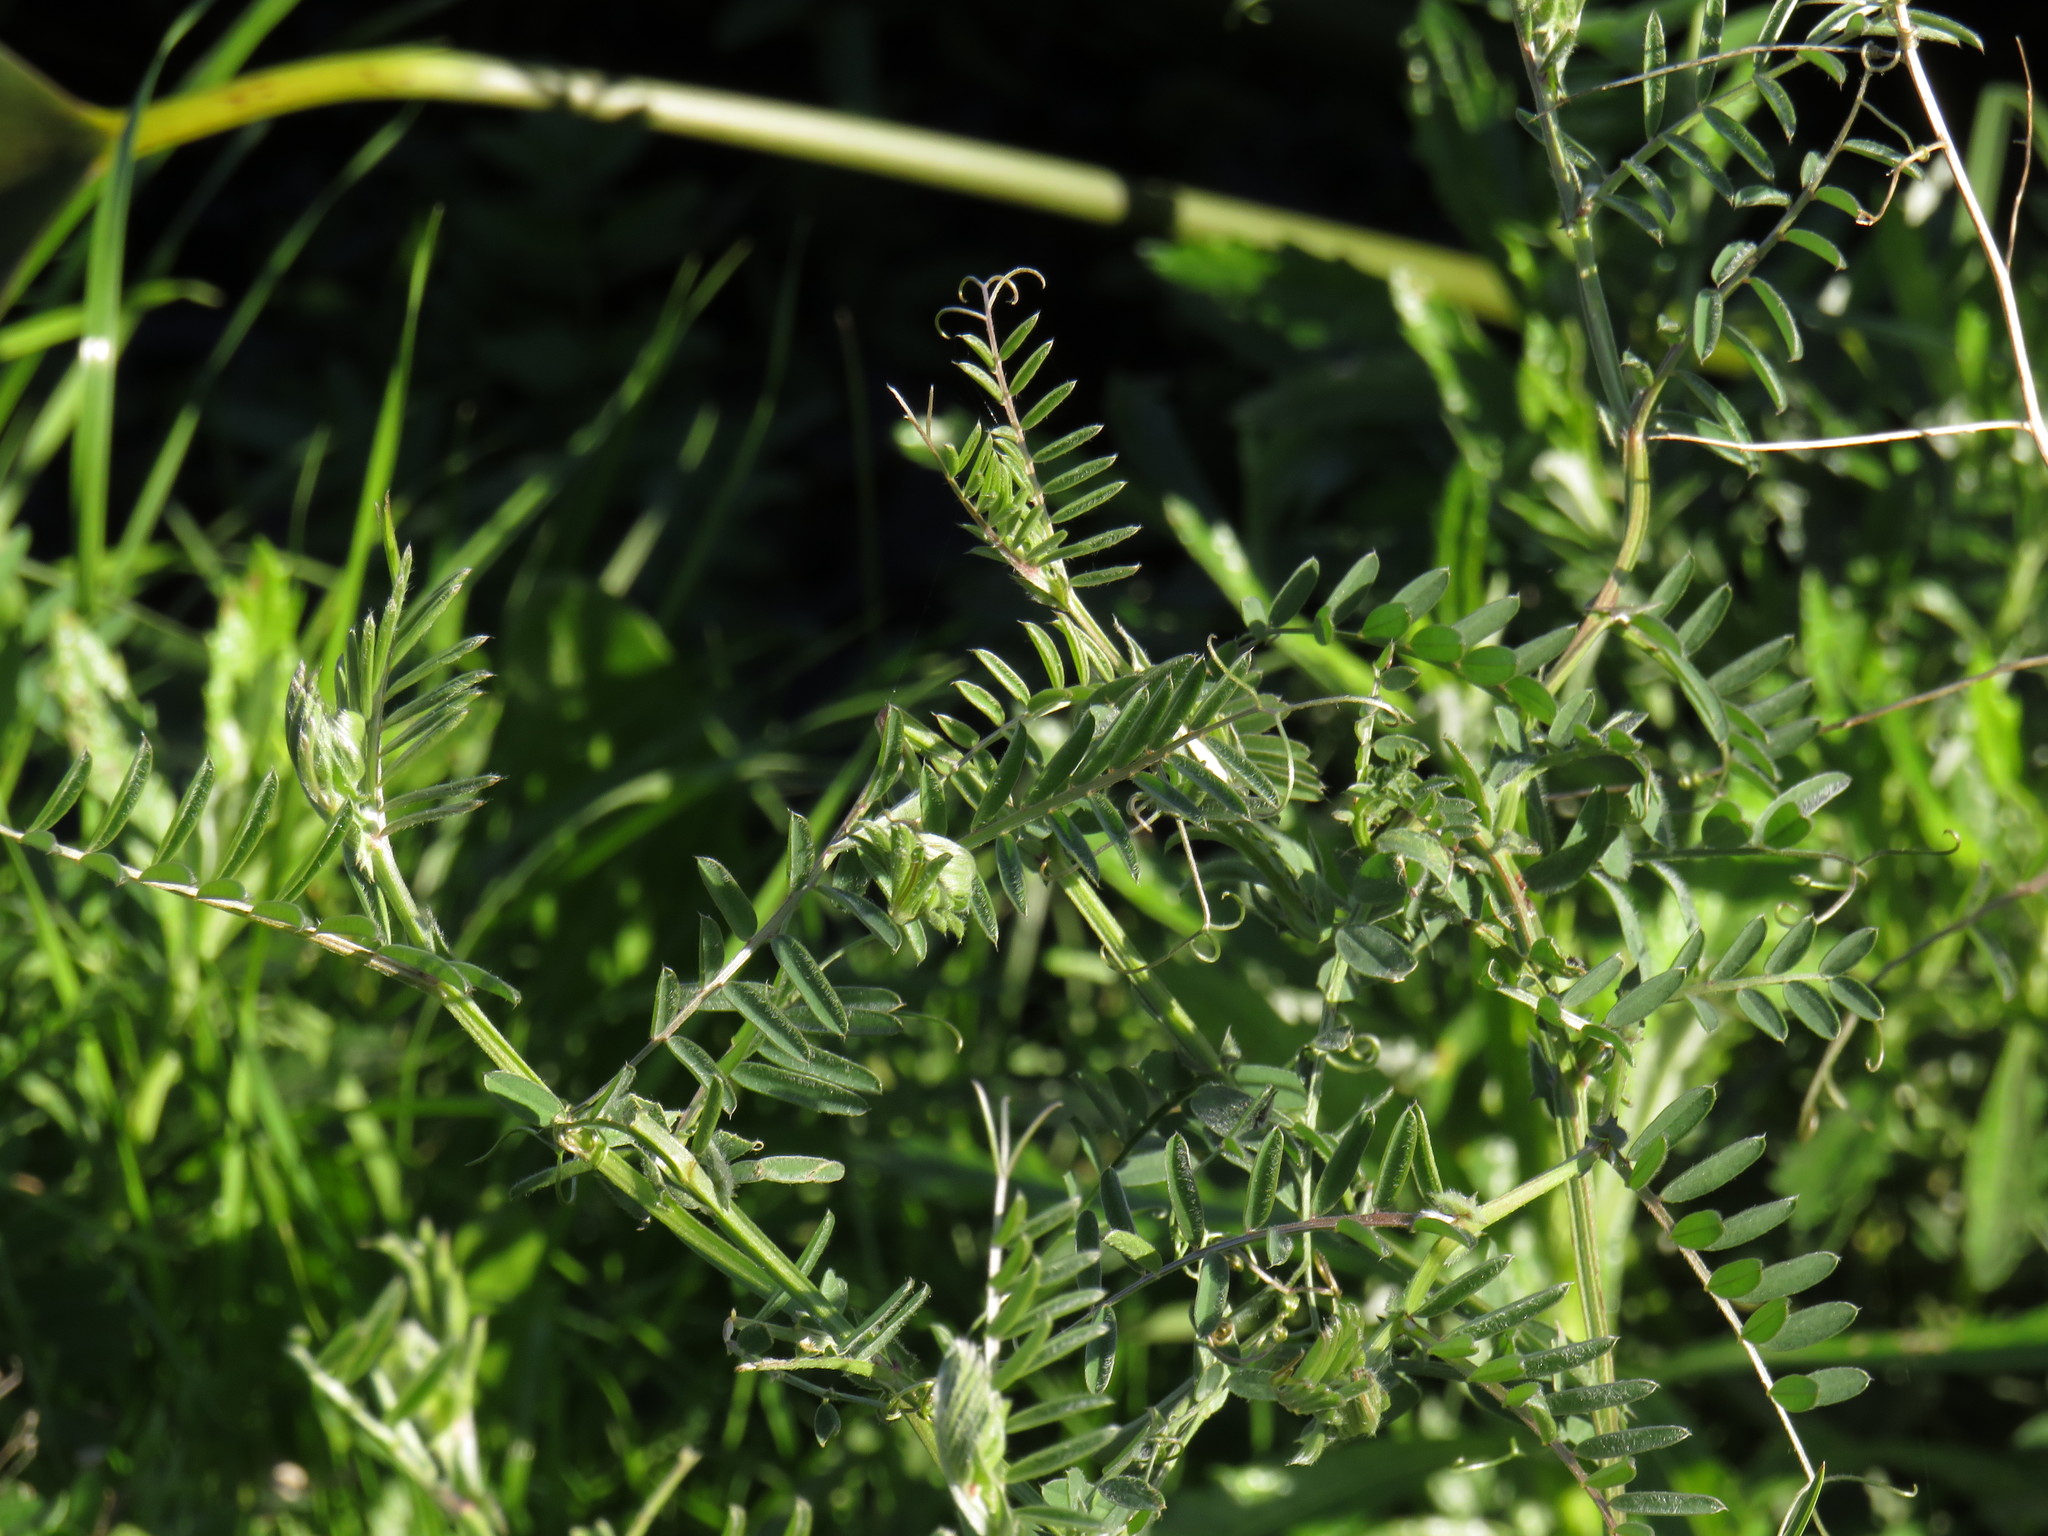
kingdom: Plantae
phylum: Tracheophyta
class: Magnoliopsida
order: Fabales
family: Fabaceae
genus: Vicia
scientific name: Vicia benghalensis
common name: Purple vetch
